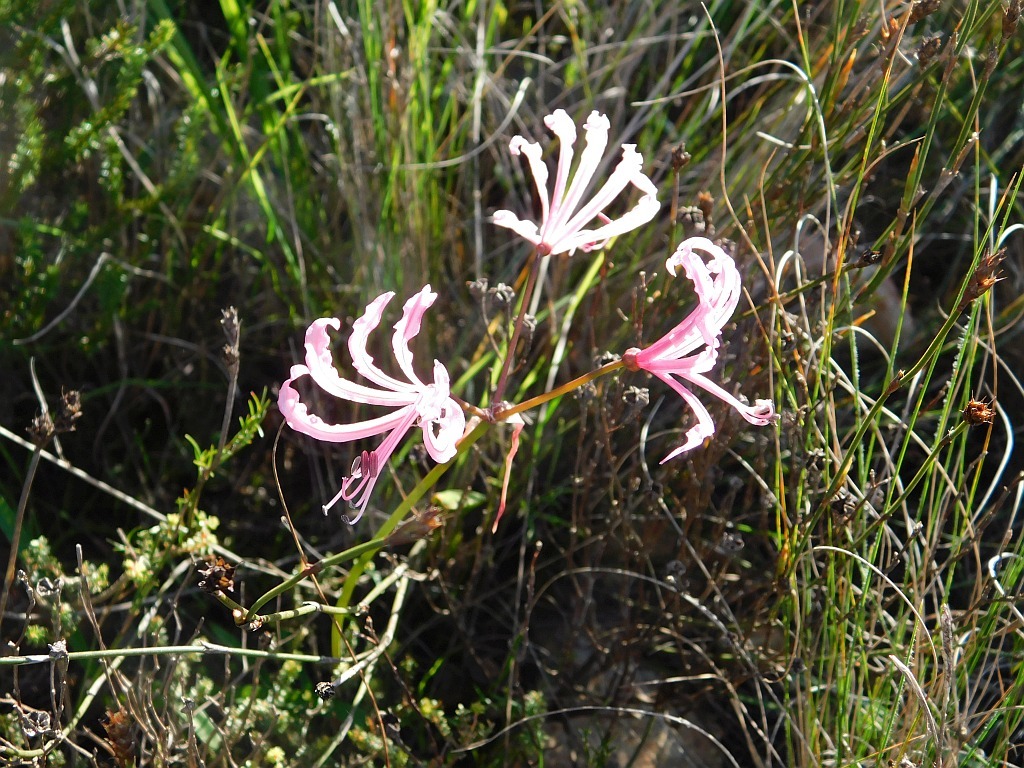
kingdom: Plantae
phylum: Tracheophyta
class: Liliopsida
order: Asparagales
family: Amaryllidaceae
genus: Nerine
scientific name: Nerine humilis
